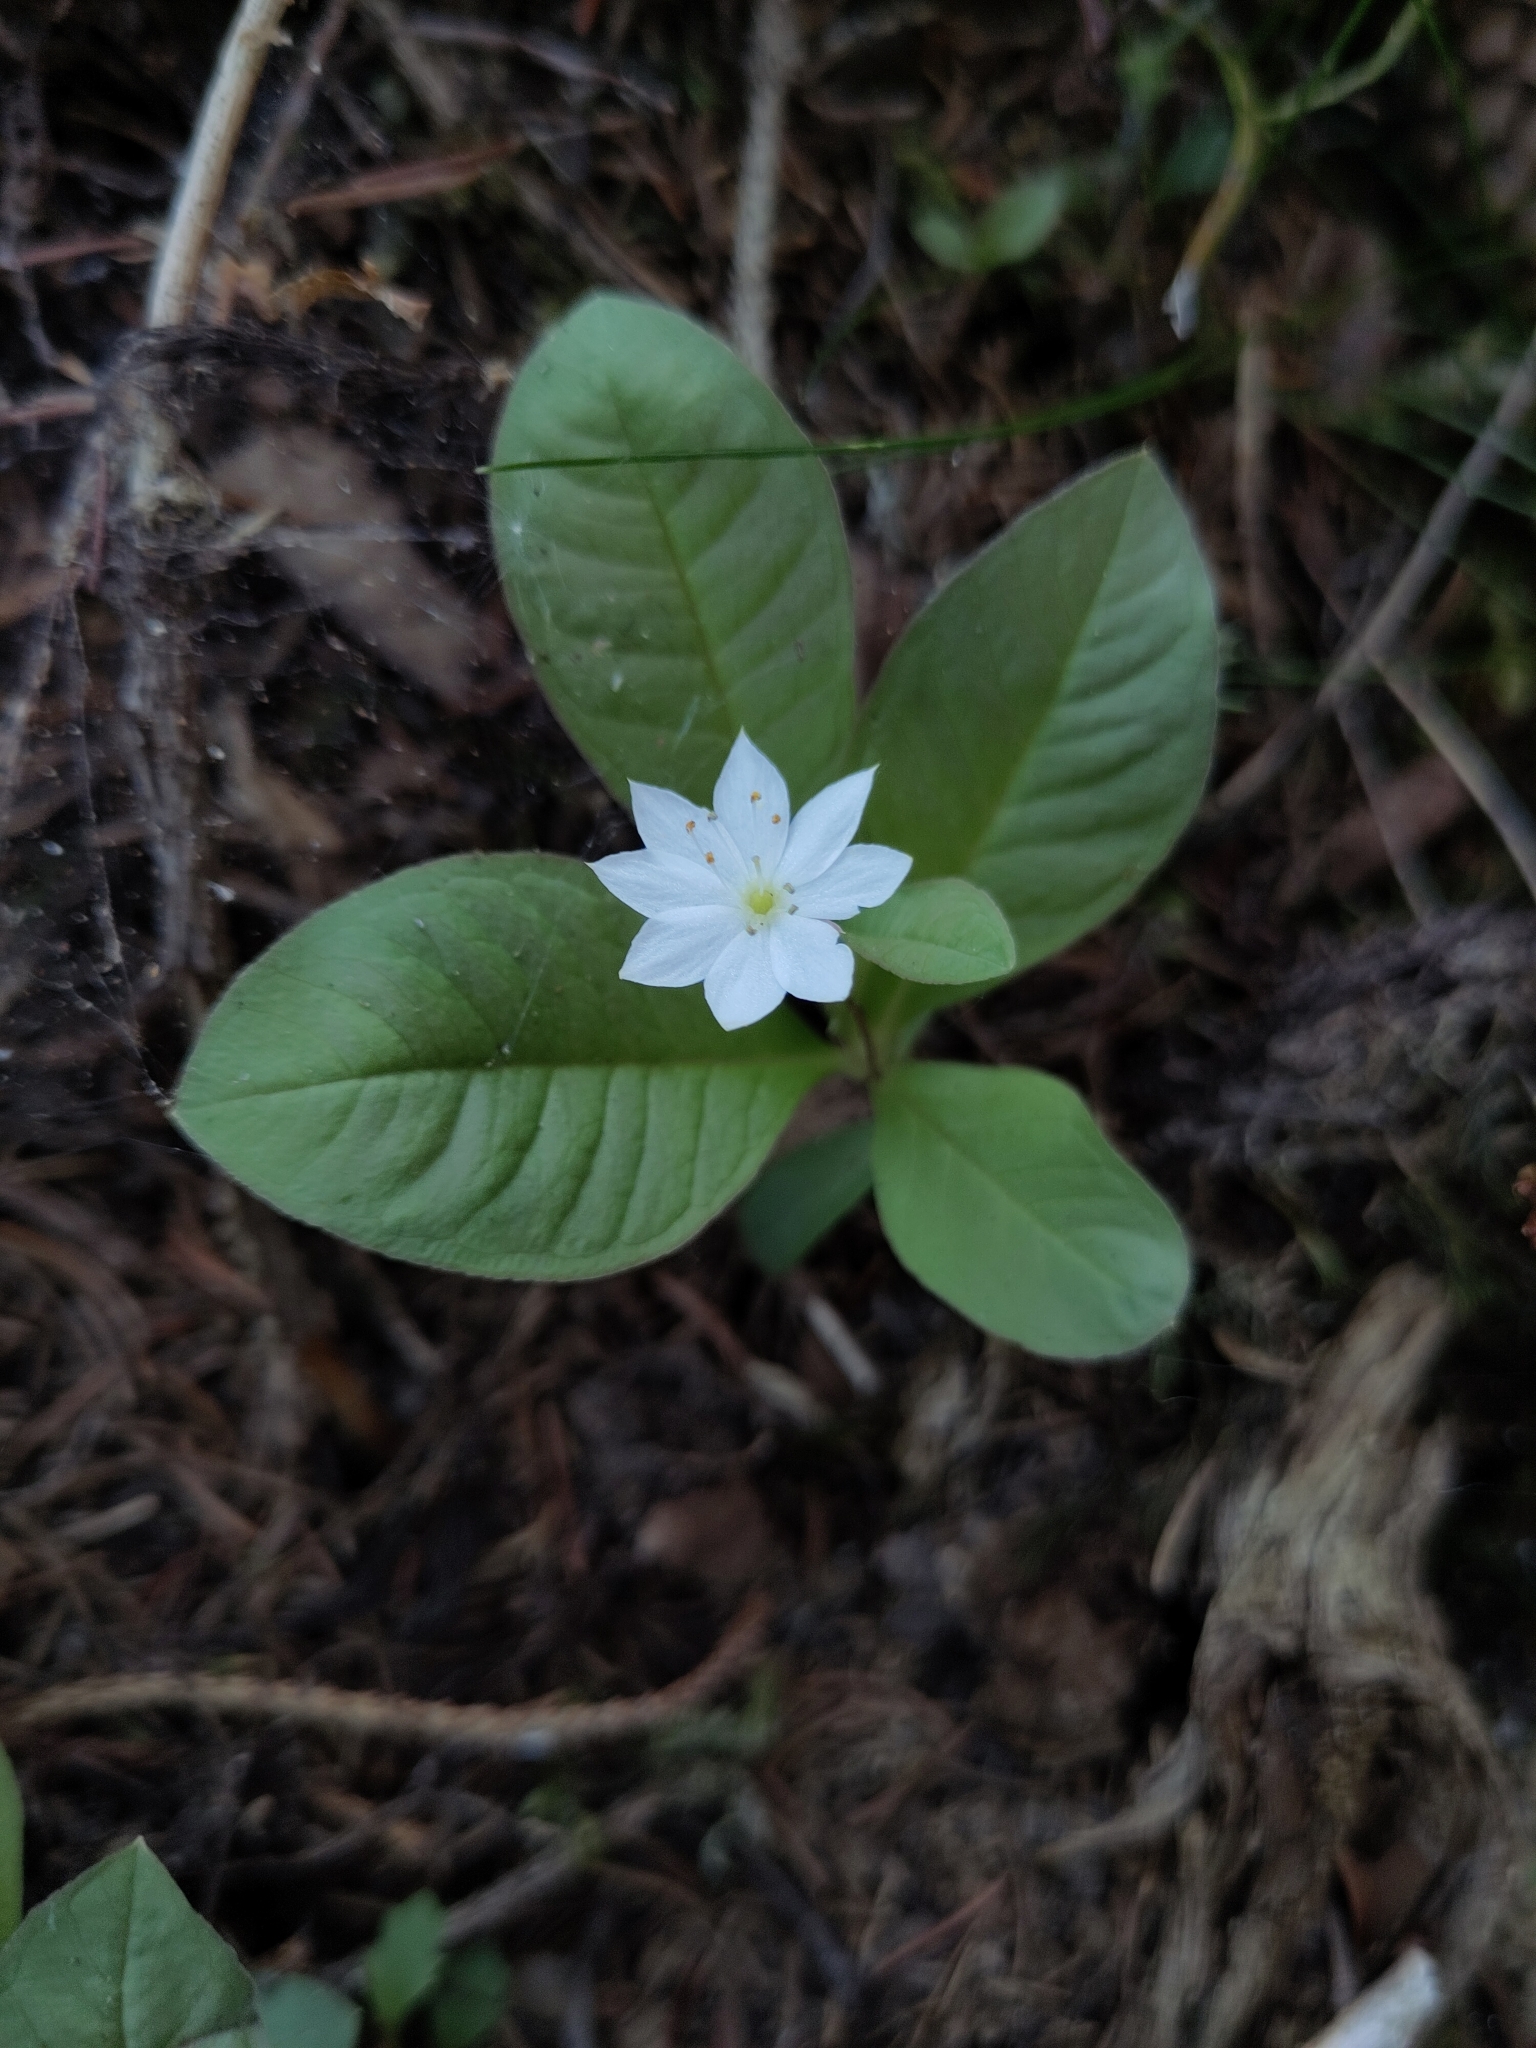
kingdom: Plantae
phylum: Tracheophyta
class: Magnoliopsida
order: Ericales
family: Primulaceae
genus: Lysimachia
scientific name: Lysimachia europaea
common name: Arctic starflower
